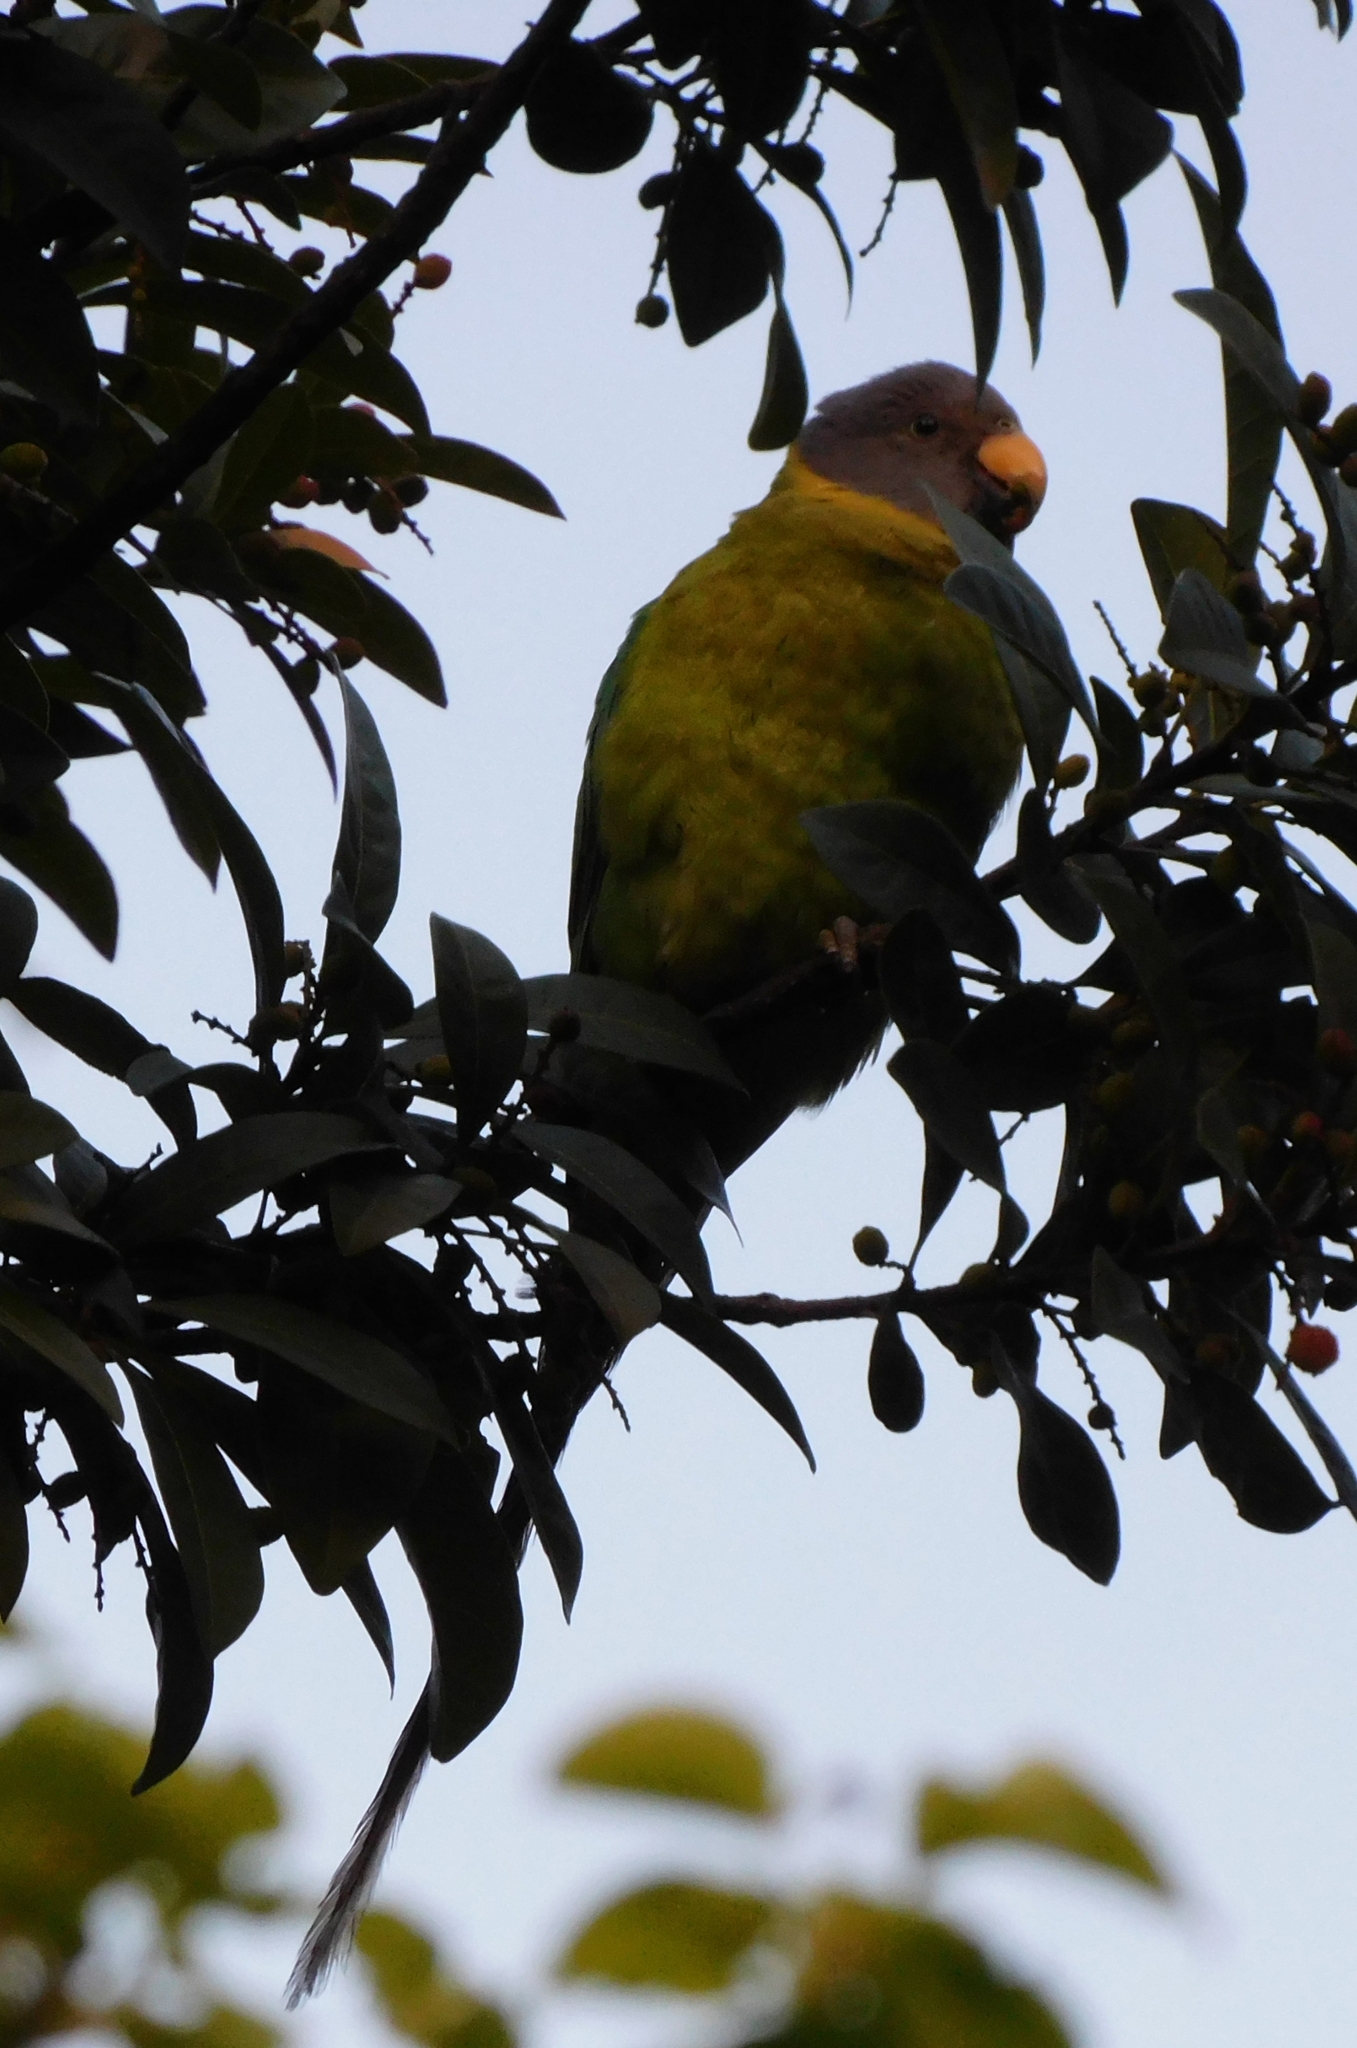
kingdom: Animalia
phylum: Chordata
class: Aves
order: Psittaciformes
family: Psittacidae
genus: Psittacula
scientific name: Psittacula cyanocephala
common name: Plum-headed parakeet
